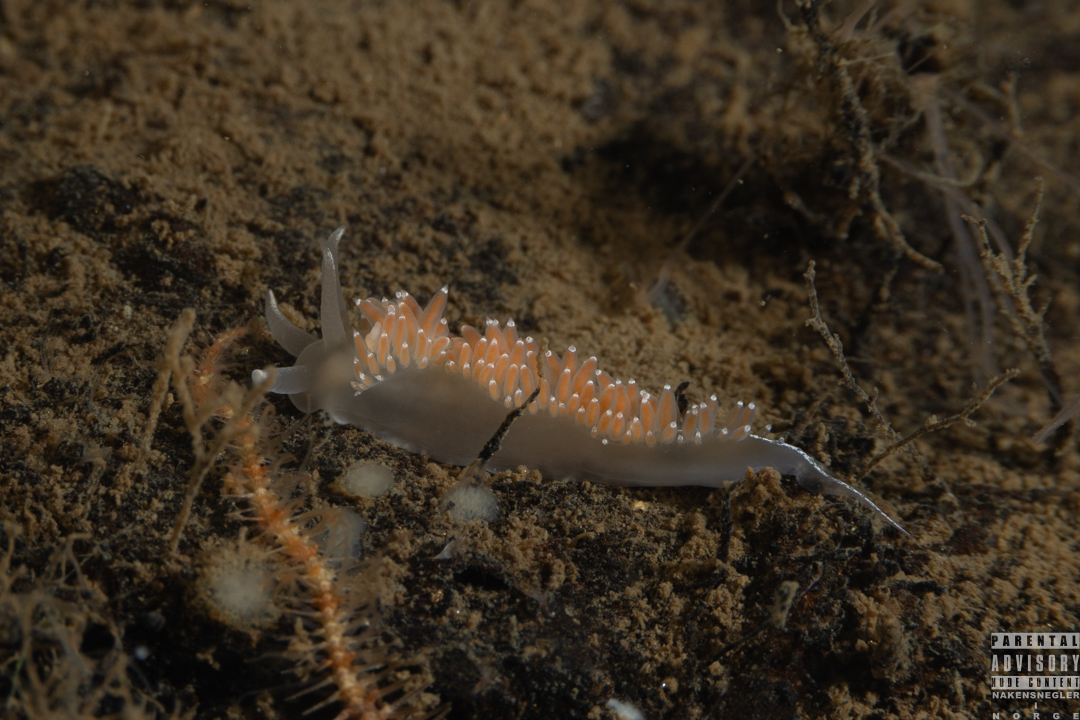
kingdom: Animalia
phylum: Mollusca
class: Gastropoda
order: Nudibranchia
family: Coryphellidae
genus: Coryphella
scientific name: Coryphella verrucosa
